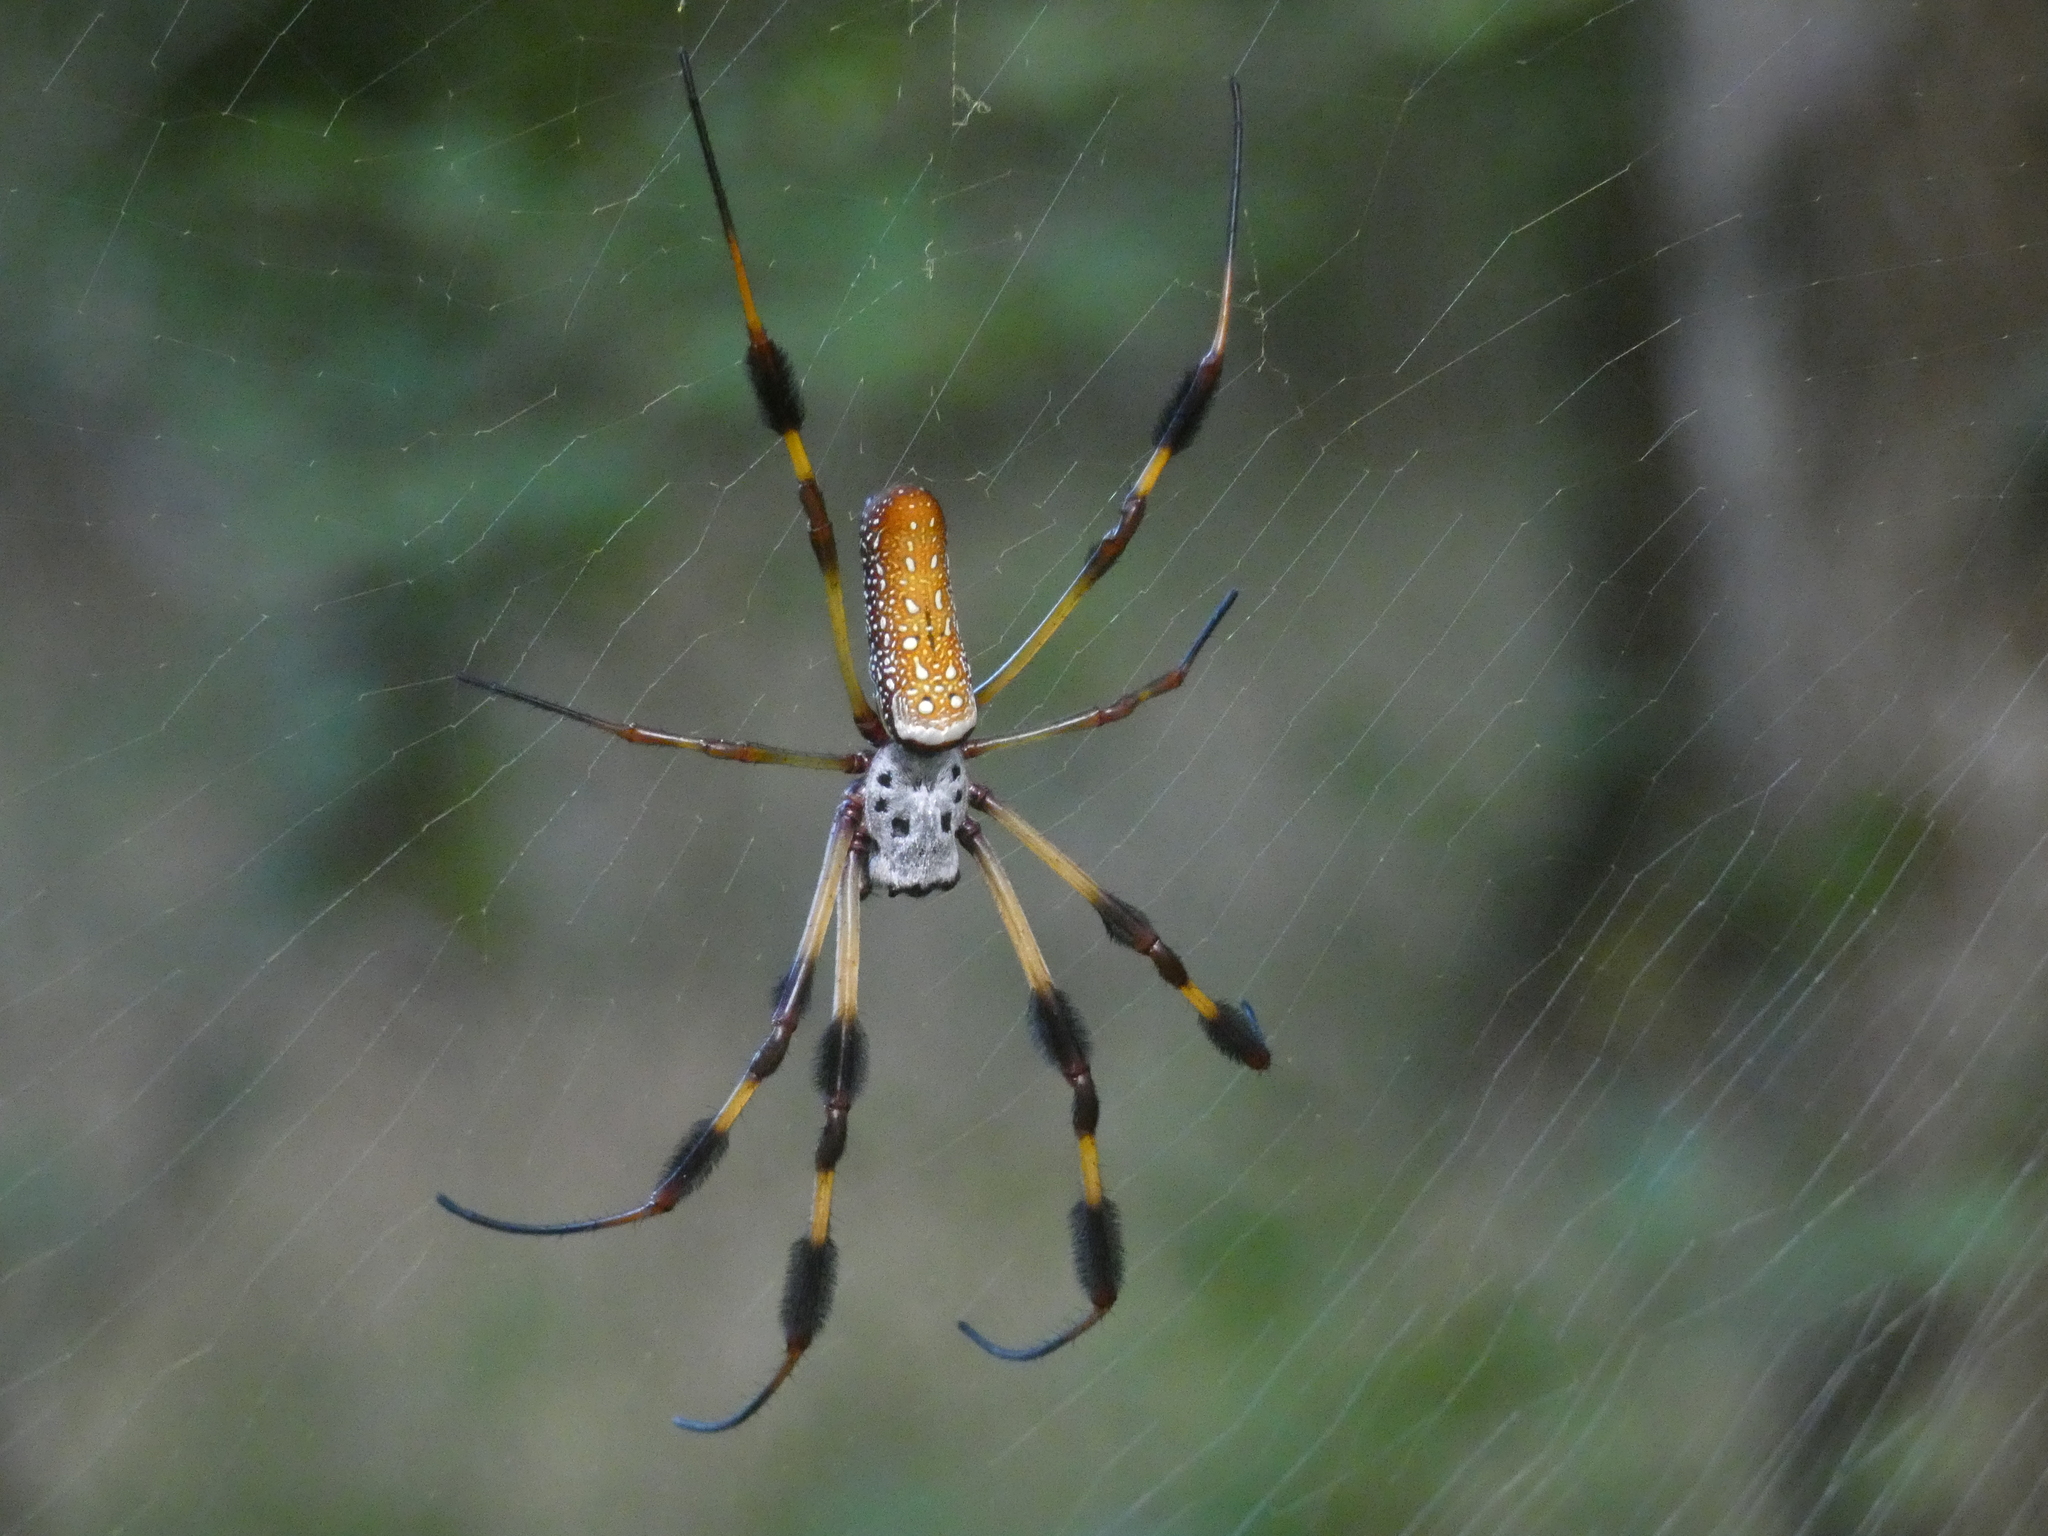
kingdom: Animalia
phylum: Arthropoda
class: Arachnida
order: Araneae
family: Araneidae
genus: Trichonephila
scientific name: Trichonephila clavipes
